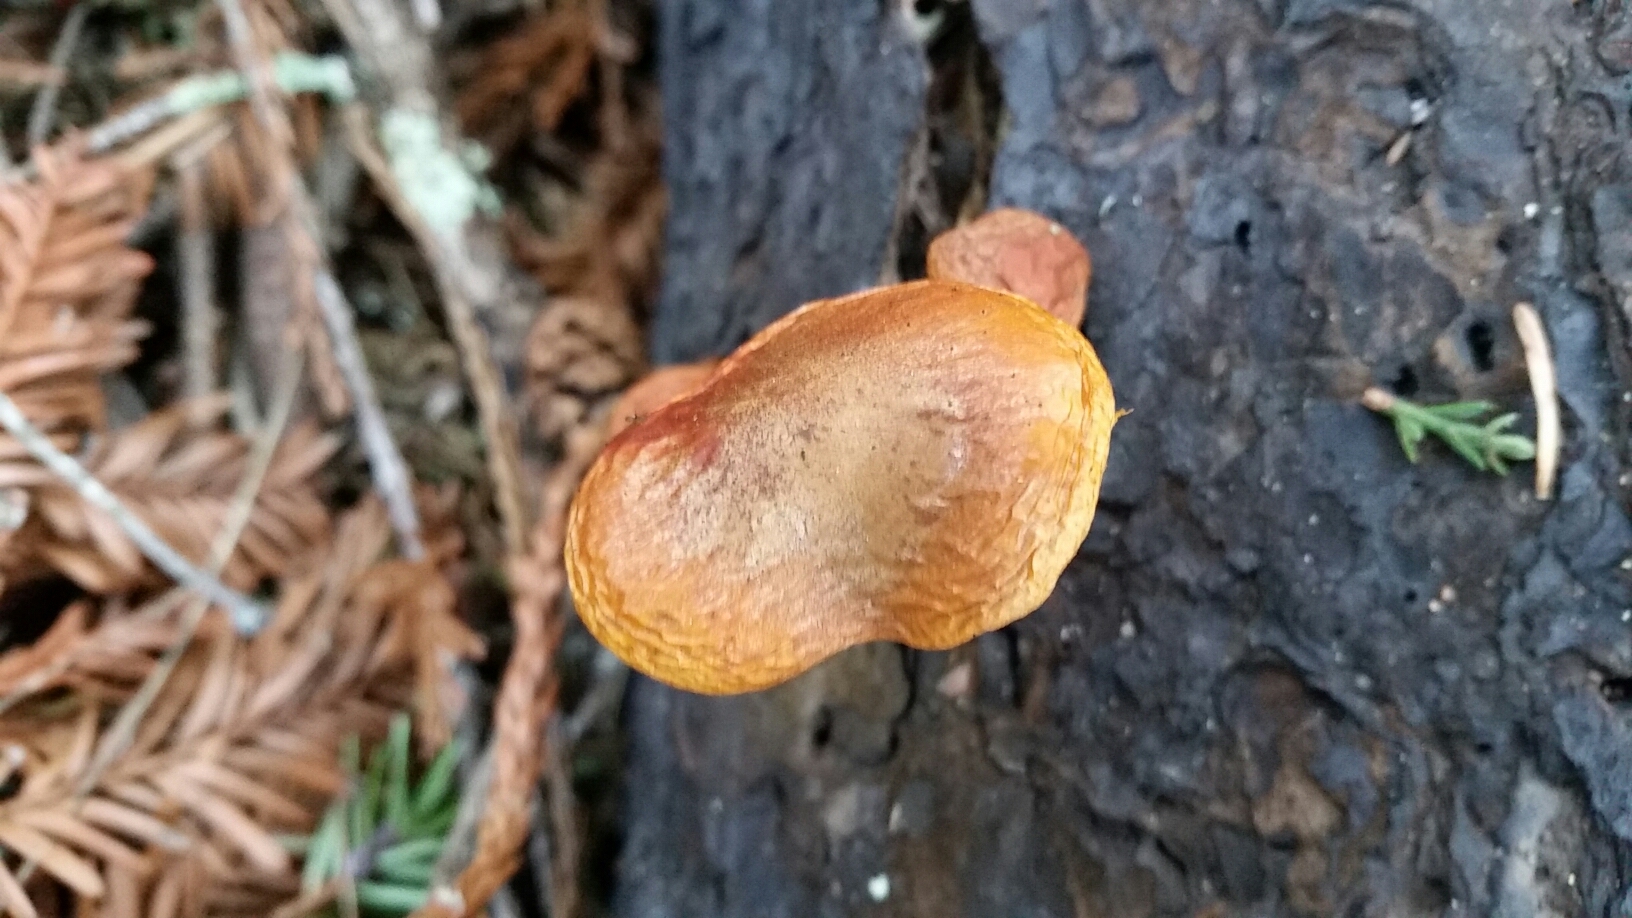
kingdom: Fungi
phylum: Basidiomycota
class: Agaricomycetes
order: Agaricales
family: Hymenogastraceae
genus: Gymnopilus
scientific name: Gymnopilus aurantiophyllus
